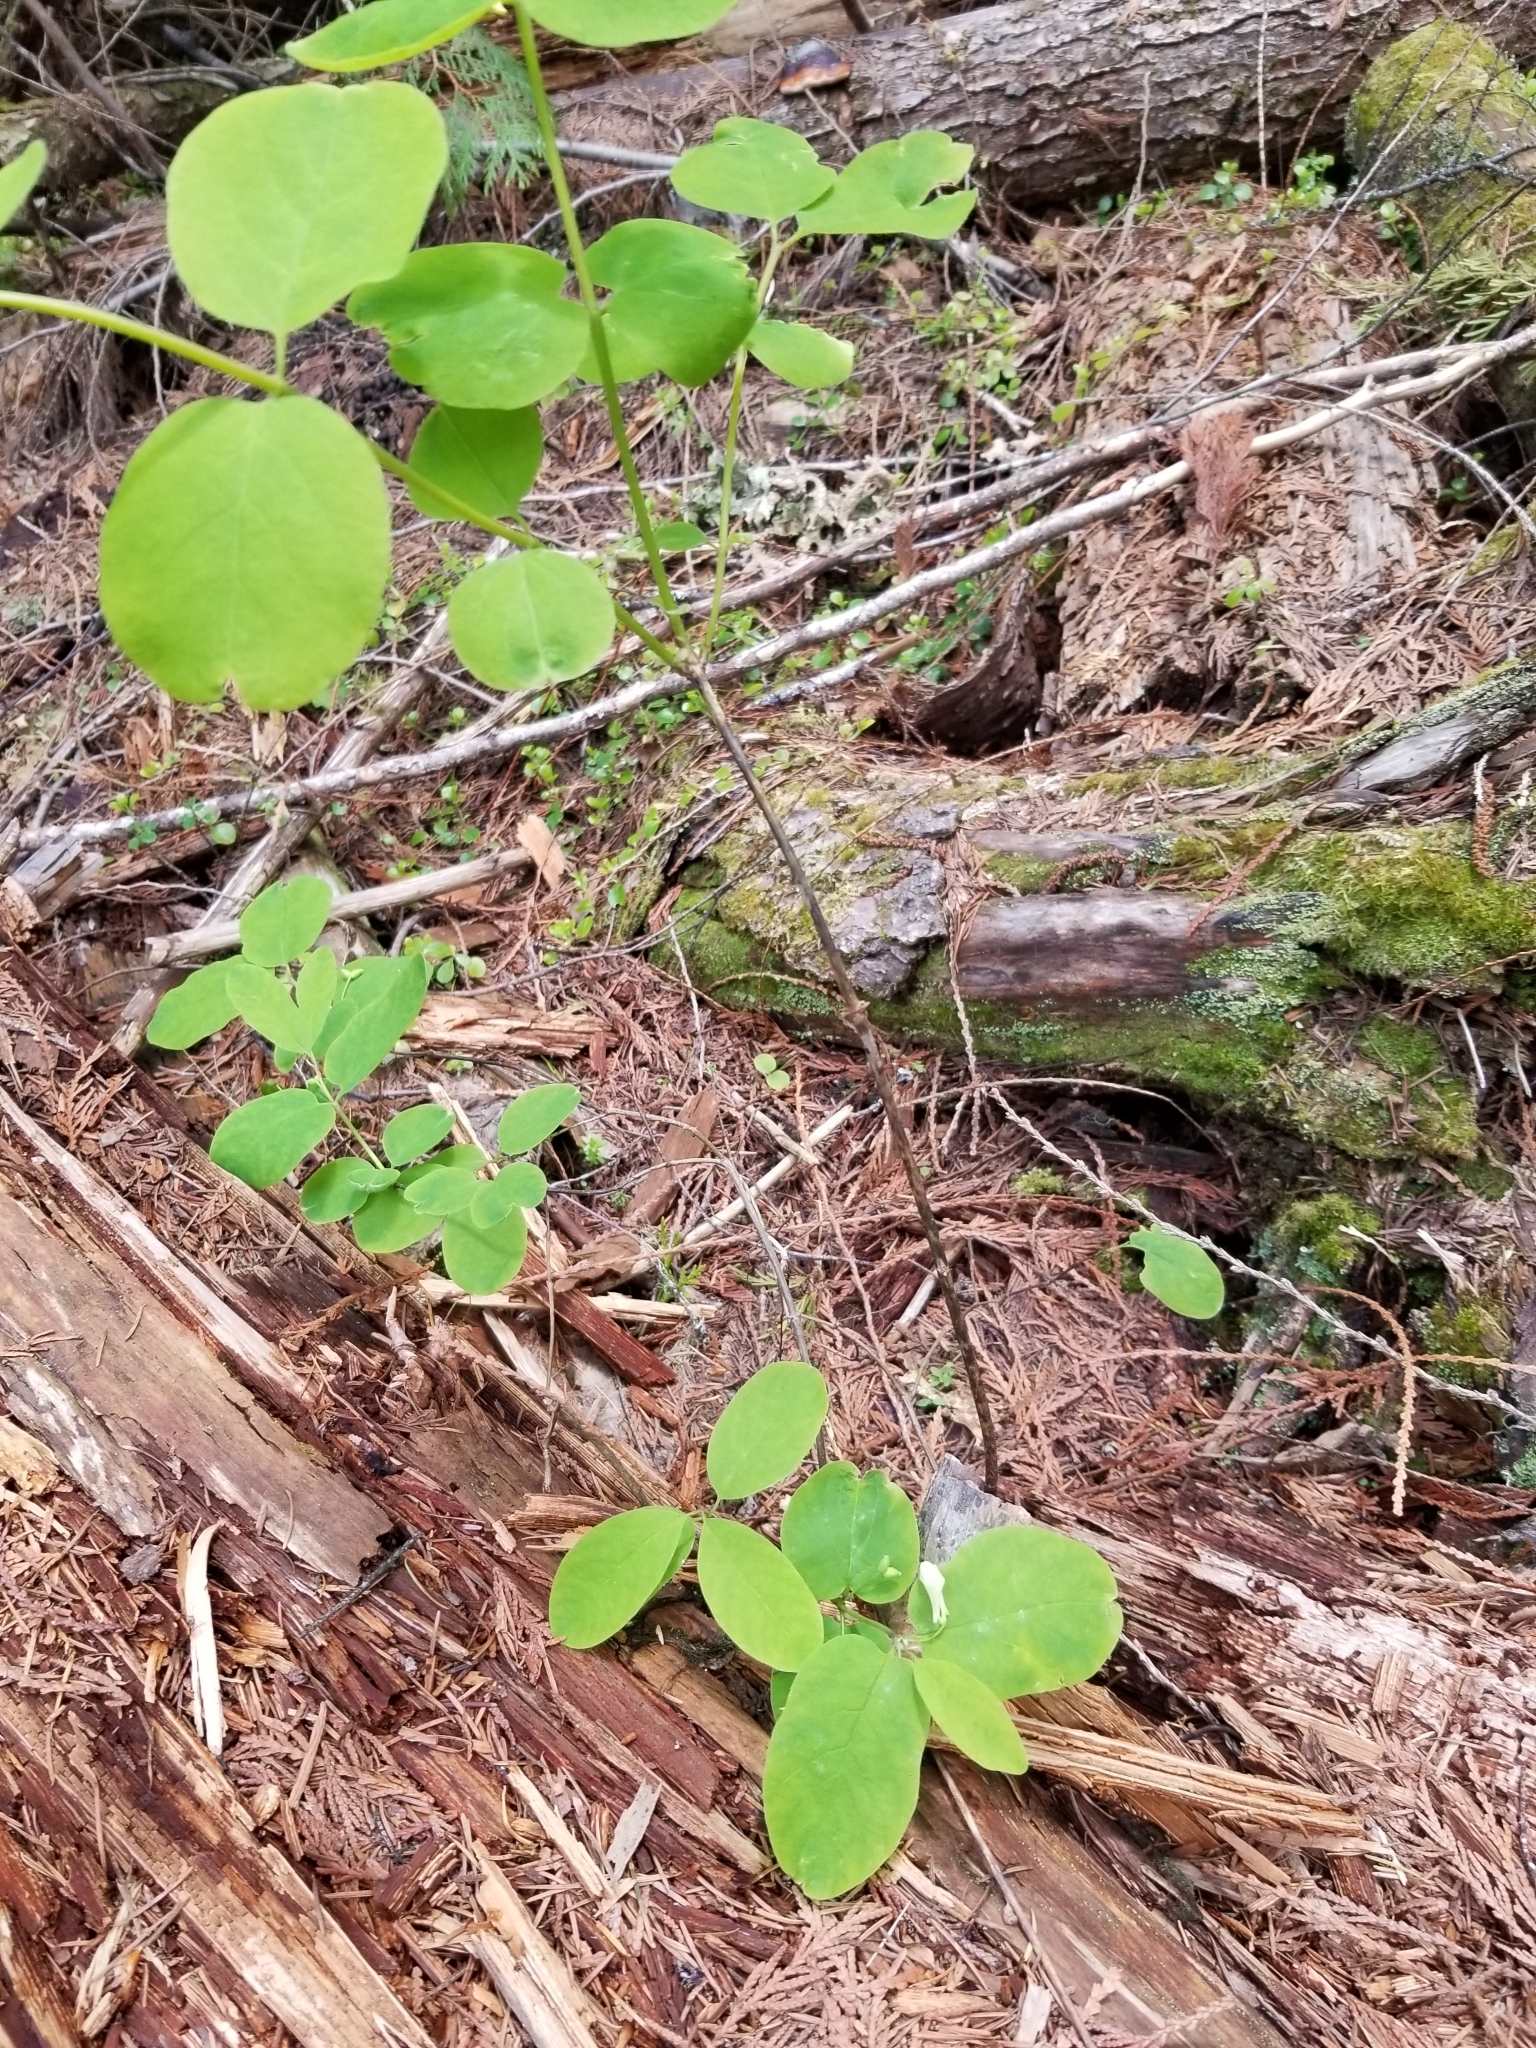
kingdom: Plantae
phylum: Tracheophyta
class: Magnoliopsida
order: Dipsacales
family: Caprifoliaceae
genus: Lonicera
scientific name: Lonicera utahensis
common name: Utah honeysuckle
